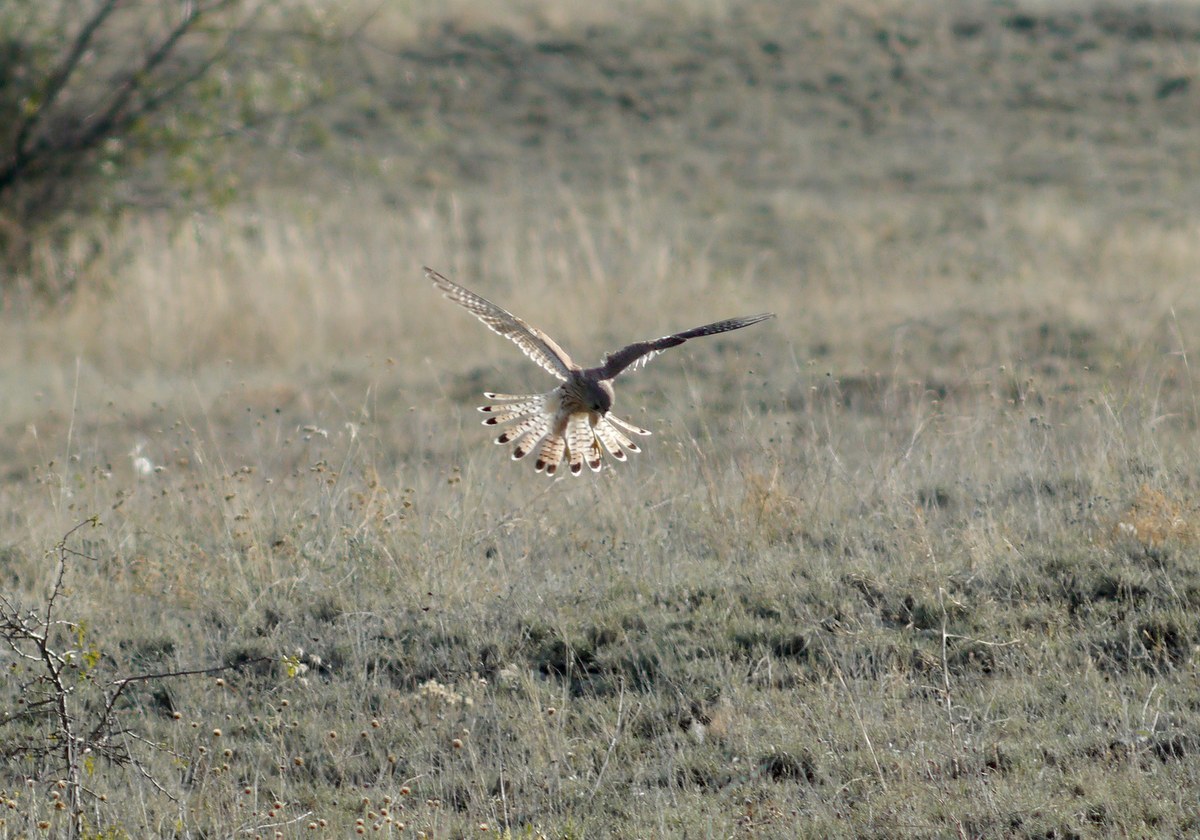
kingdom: Animalia
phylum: Chordata
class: Aves
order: Falconiformes
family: Falconidae
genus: Falco
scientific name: Falco tinnunculus
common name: Common kestrel
